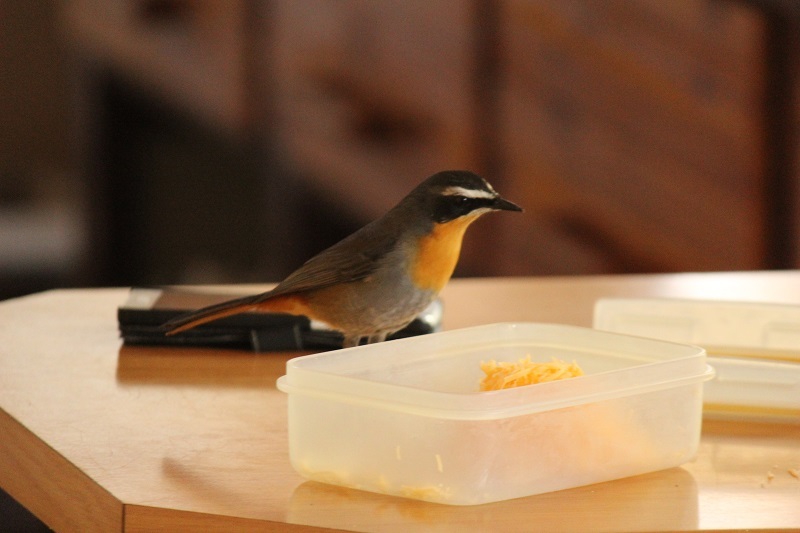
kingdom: Animalia
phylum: Chordata
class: Aves
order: Passeriformes
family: Muscicapidae
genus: Cossypha
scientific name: Cossypha caffra
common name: Cape robin-chat
